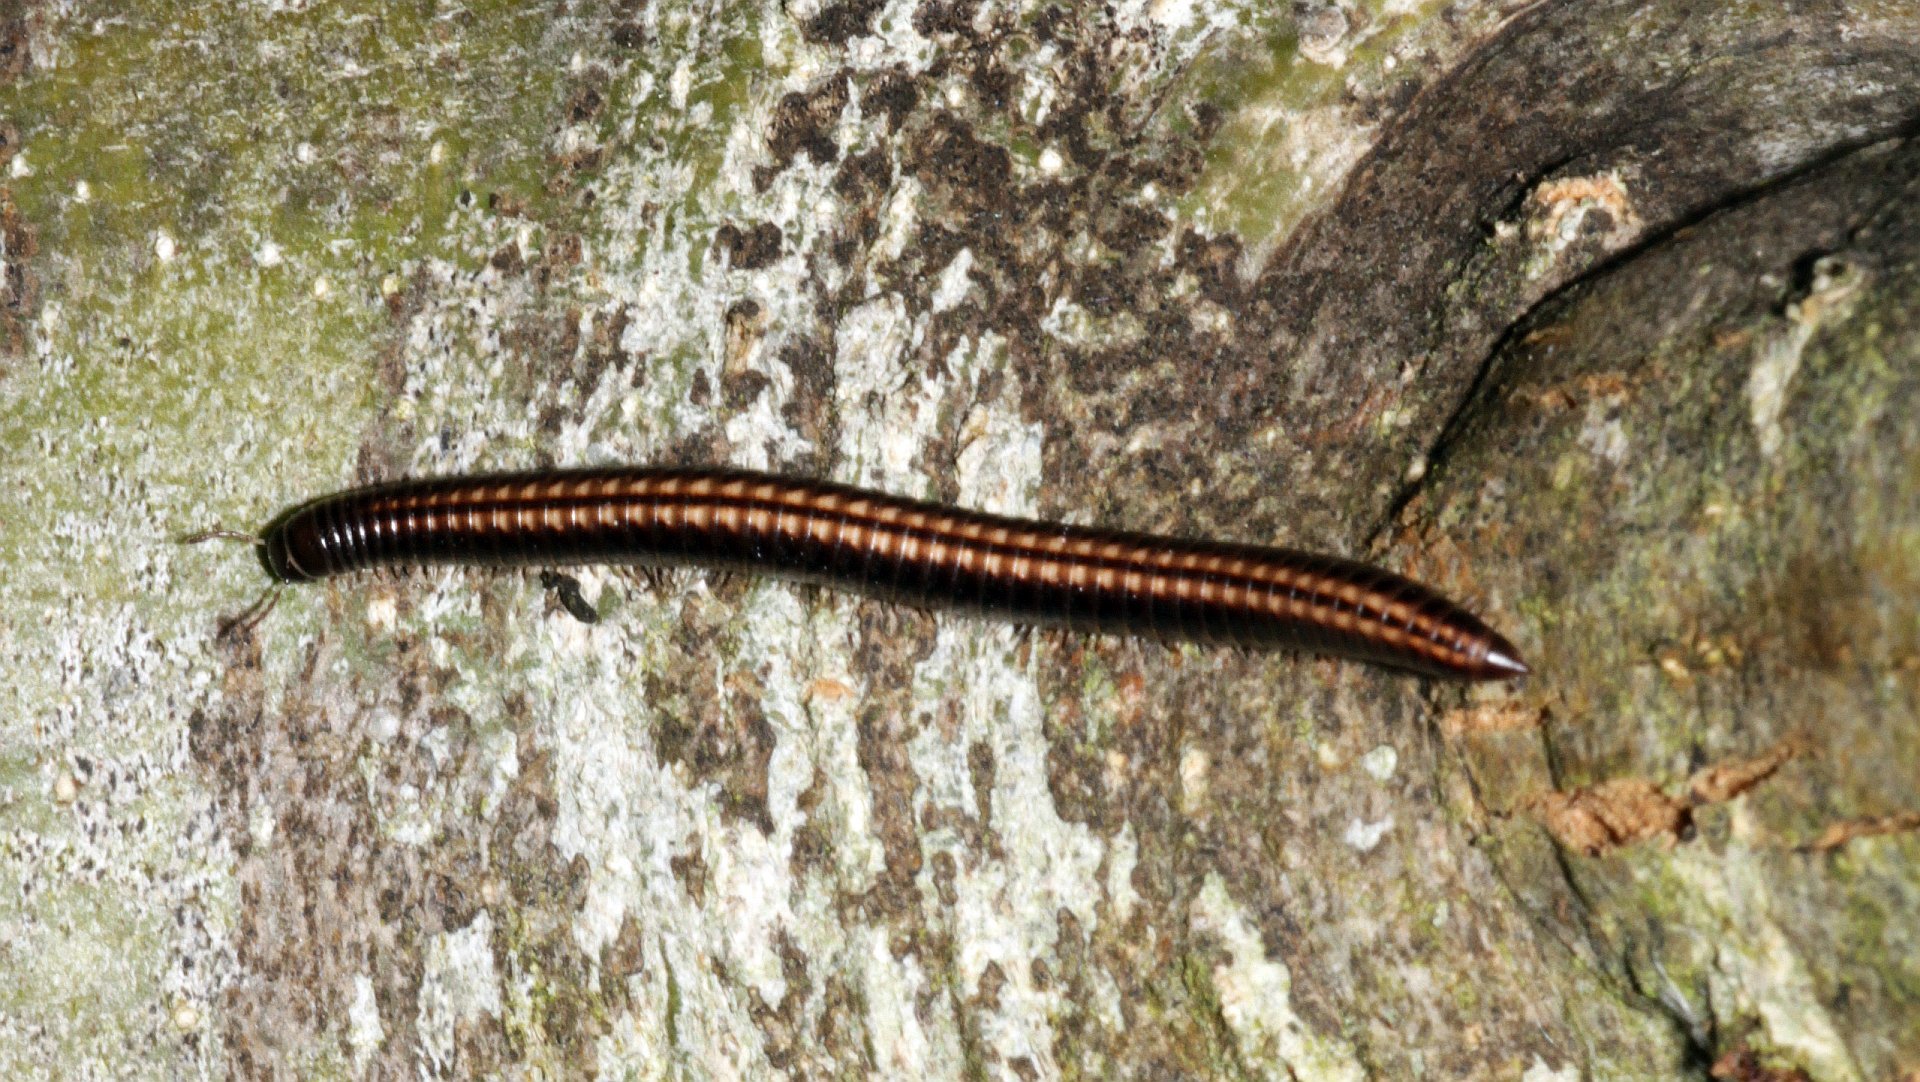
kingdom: Animalia
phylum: Arthropoda
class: Diplopoda
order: Julida
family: Julidae
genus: Ommatoiulus
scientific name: Ommatoiulus sabulosus
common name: Striped millipede
